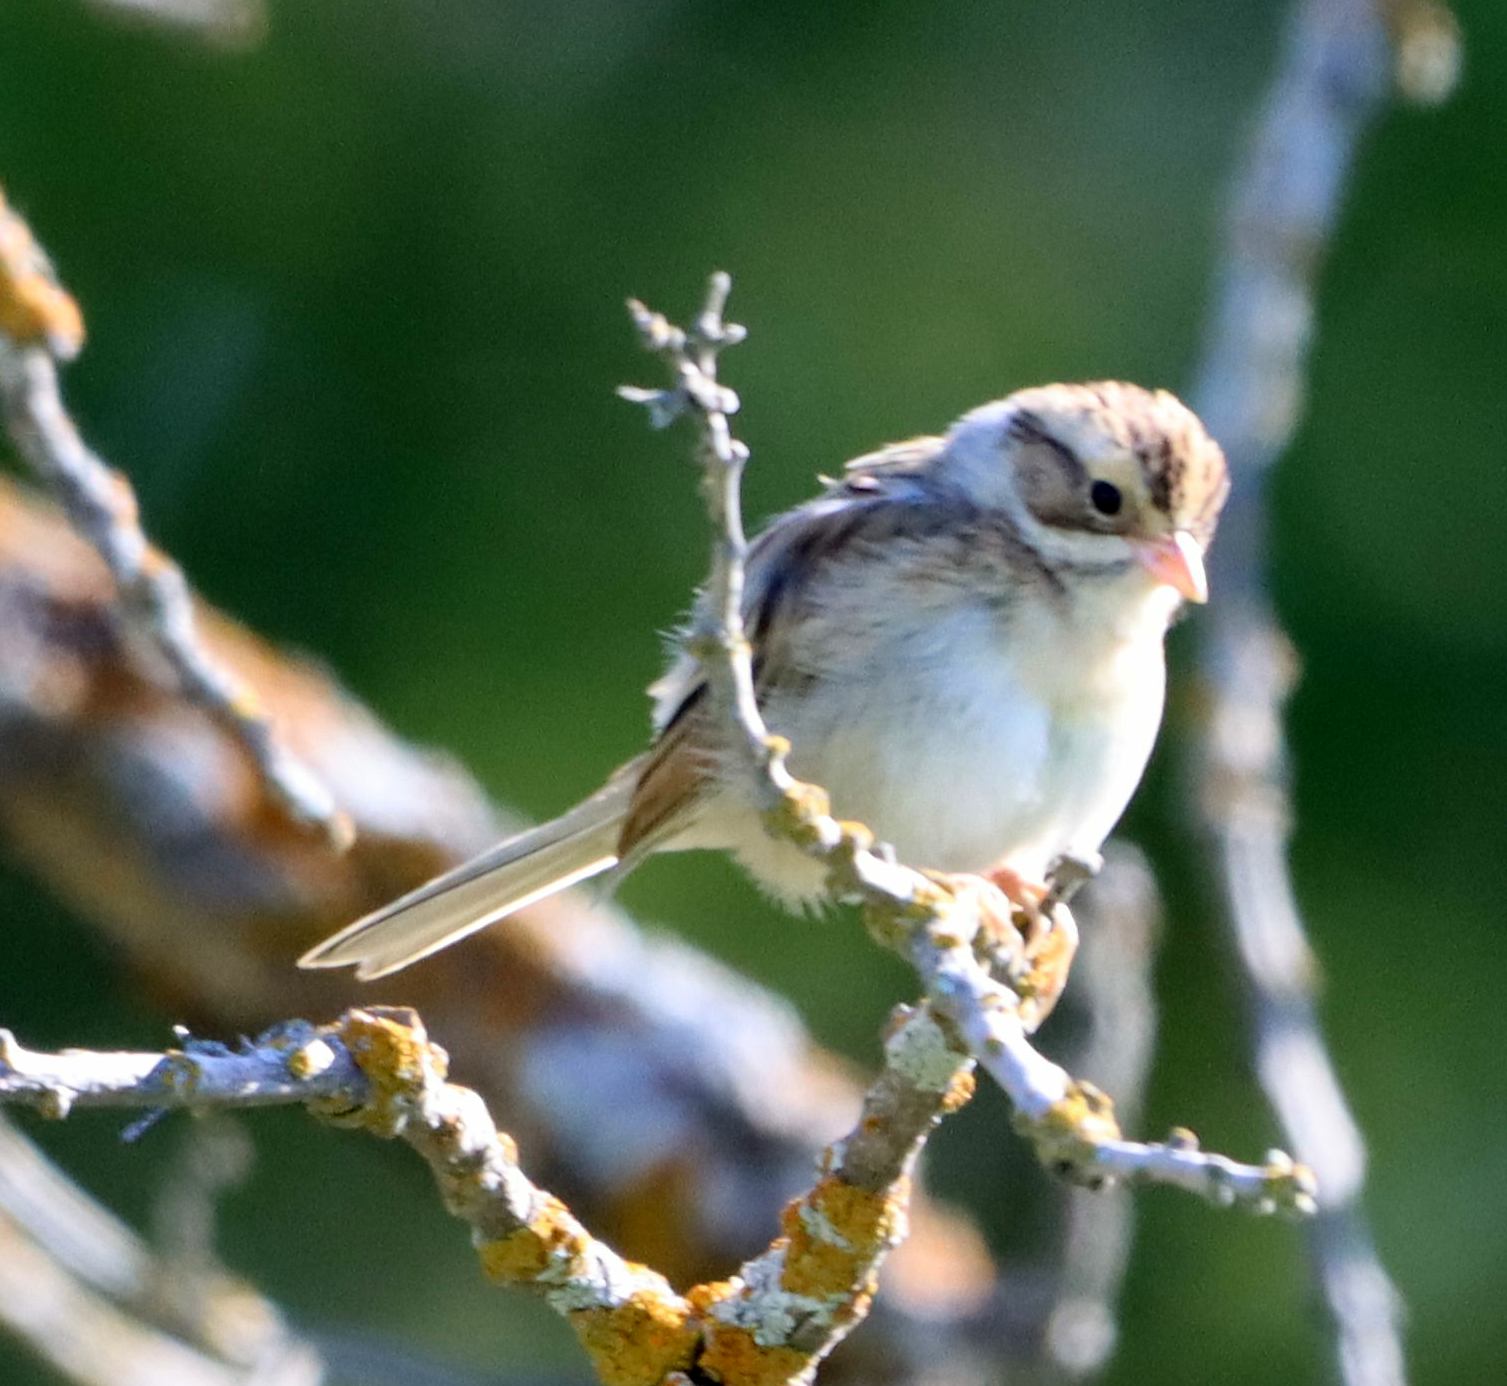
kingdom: Animalia
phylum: Chordata
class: Aves
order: Passeriformes
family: Passerellidae
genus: Spizella
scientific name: Spizella pallida
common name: Clay-colored sparrow
